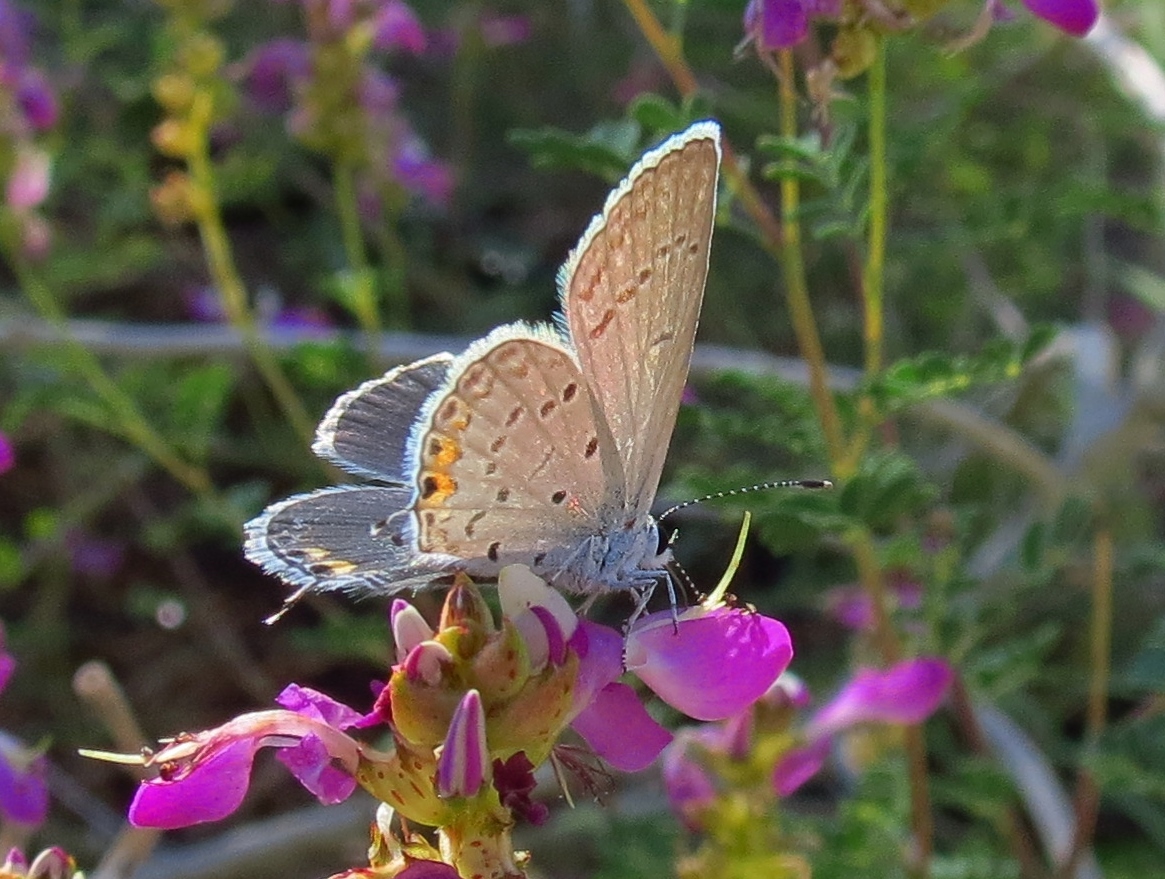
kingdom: Animalia
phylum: Arthropoda
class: Insecta
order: Lepidoptera
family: Lycaenidae
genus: Elkalyce
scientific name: Elkalyce comyntas
